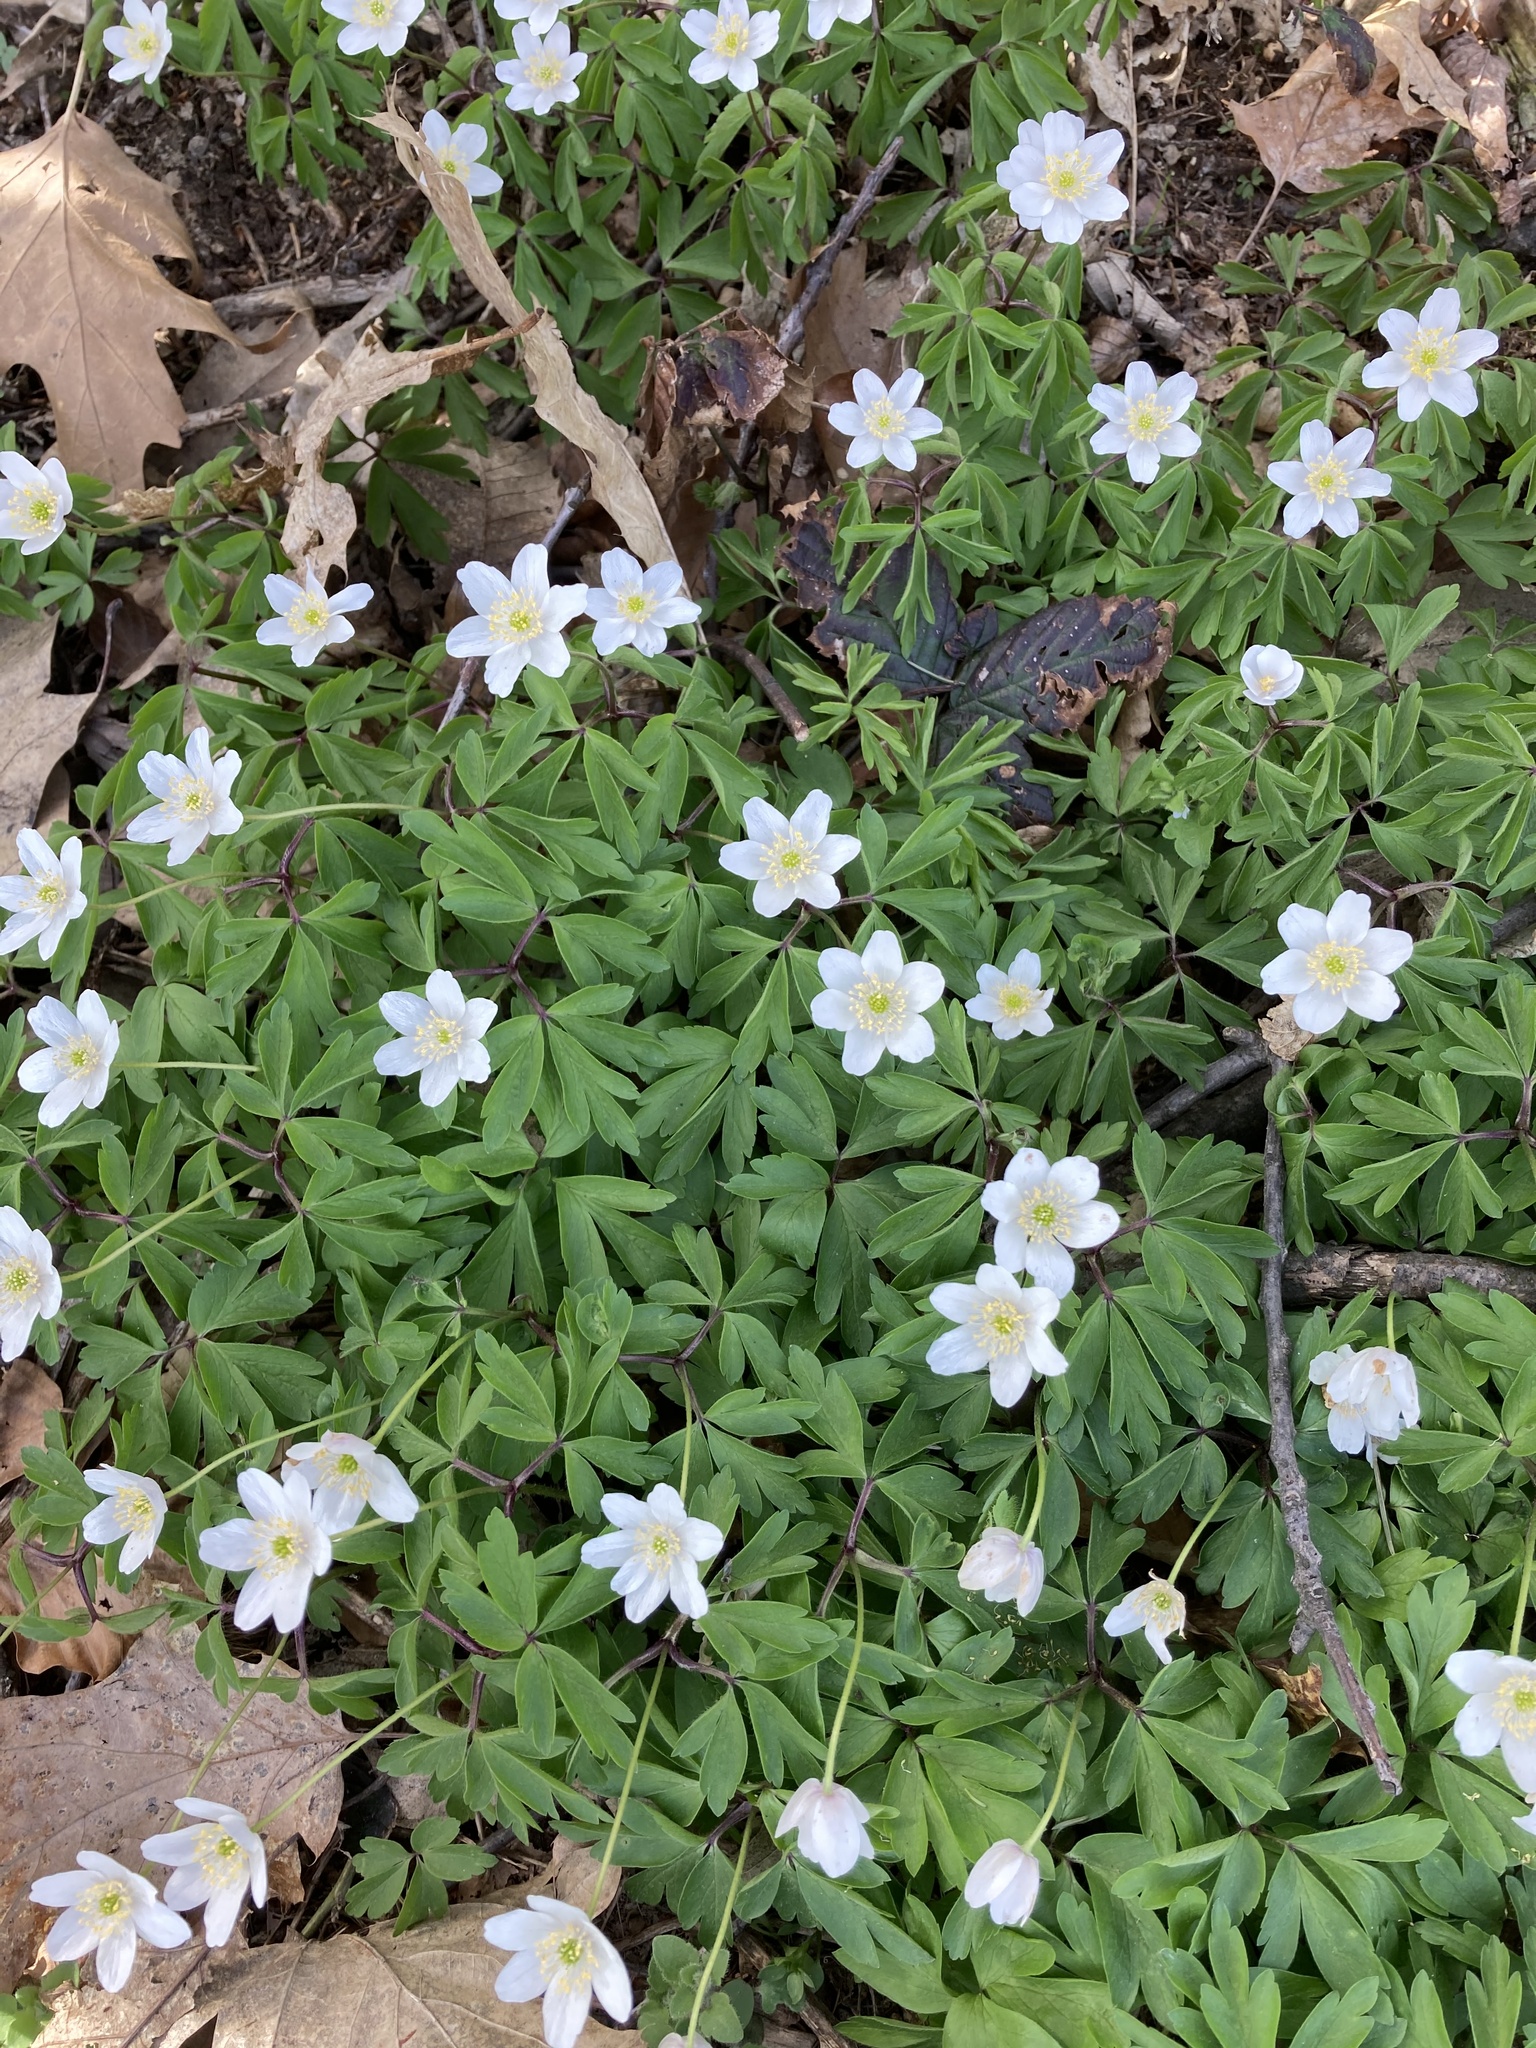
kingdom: Plantae
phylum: Tracheophyta
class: Magnoliopsida
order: Ranunculales
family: Ranunculaceae
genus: Anemone
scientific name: Anemone nemorosa
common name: Wood anemone
